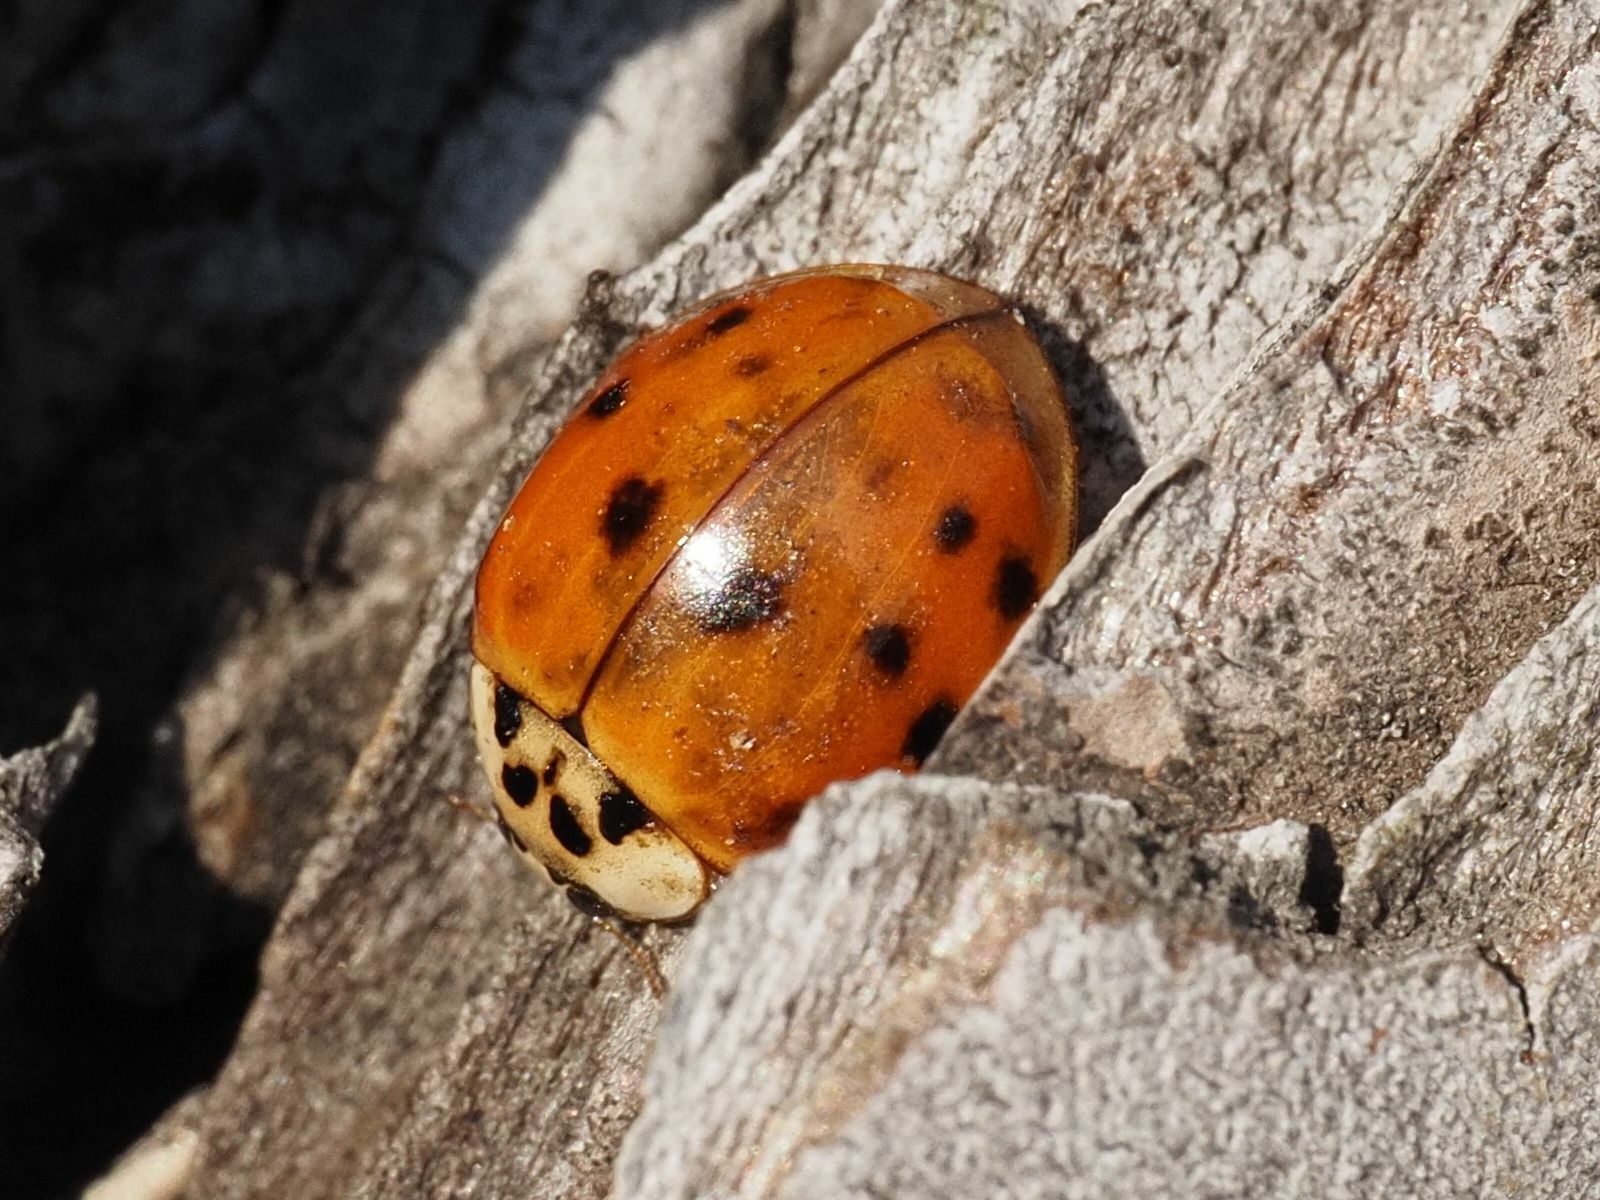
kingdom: Animalia
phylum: Arthropoda
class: Insecta
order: Coleoptera
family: Coccinellidae
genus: Harmonia
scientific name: Harmonia axyridis
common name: Harlequin ladybird
